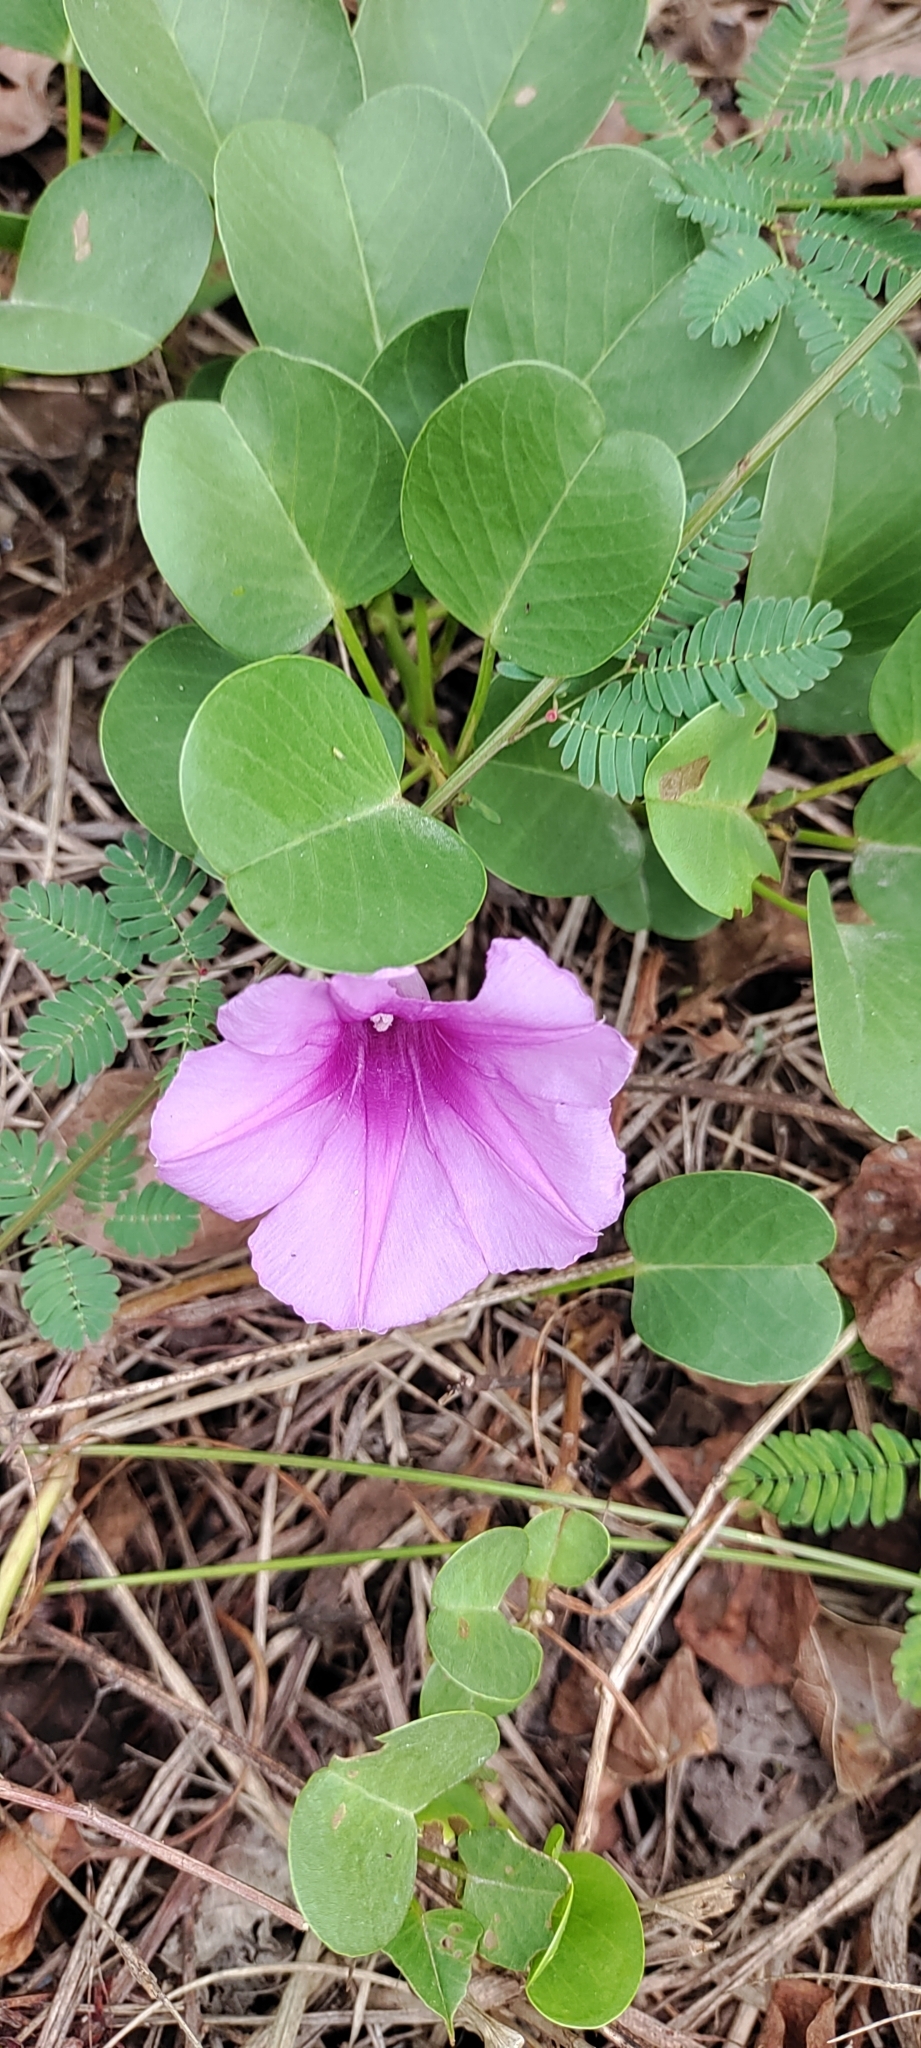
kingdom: Plantae
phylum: Tracheophyta
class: Magnoliopsida
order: Solanales
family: Convolvulaceae
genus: Ipomoea
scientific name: Ipomoea pes-caprae
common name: Beach morning glory
